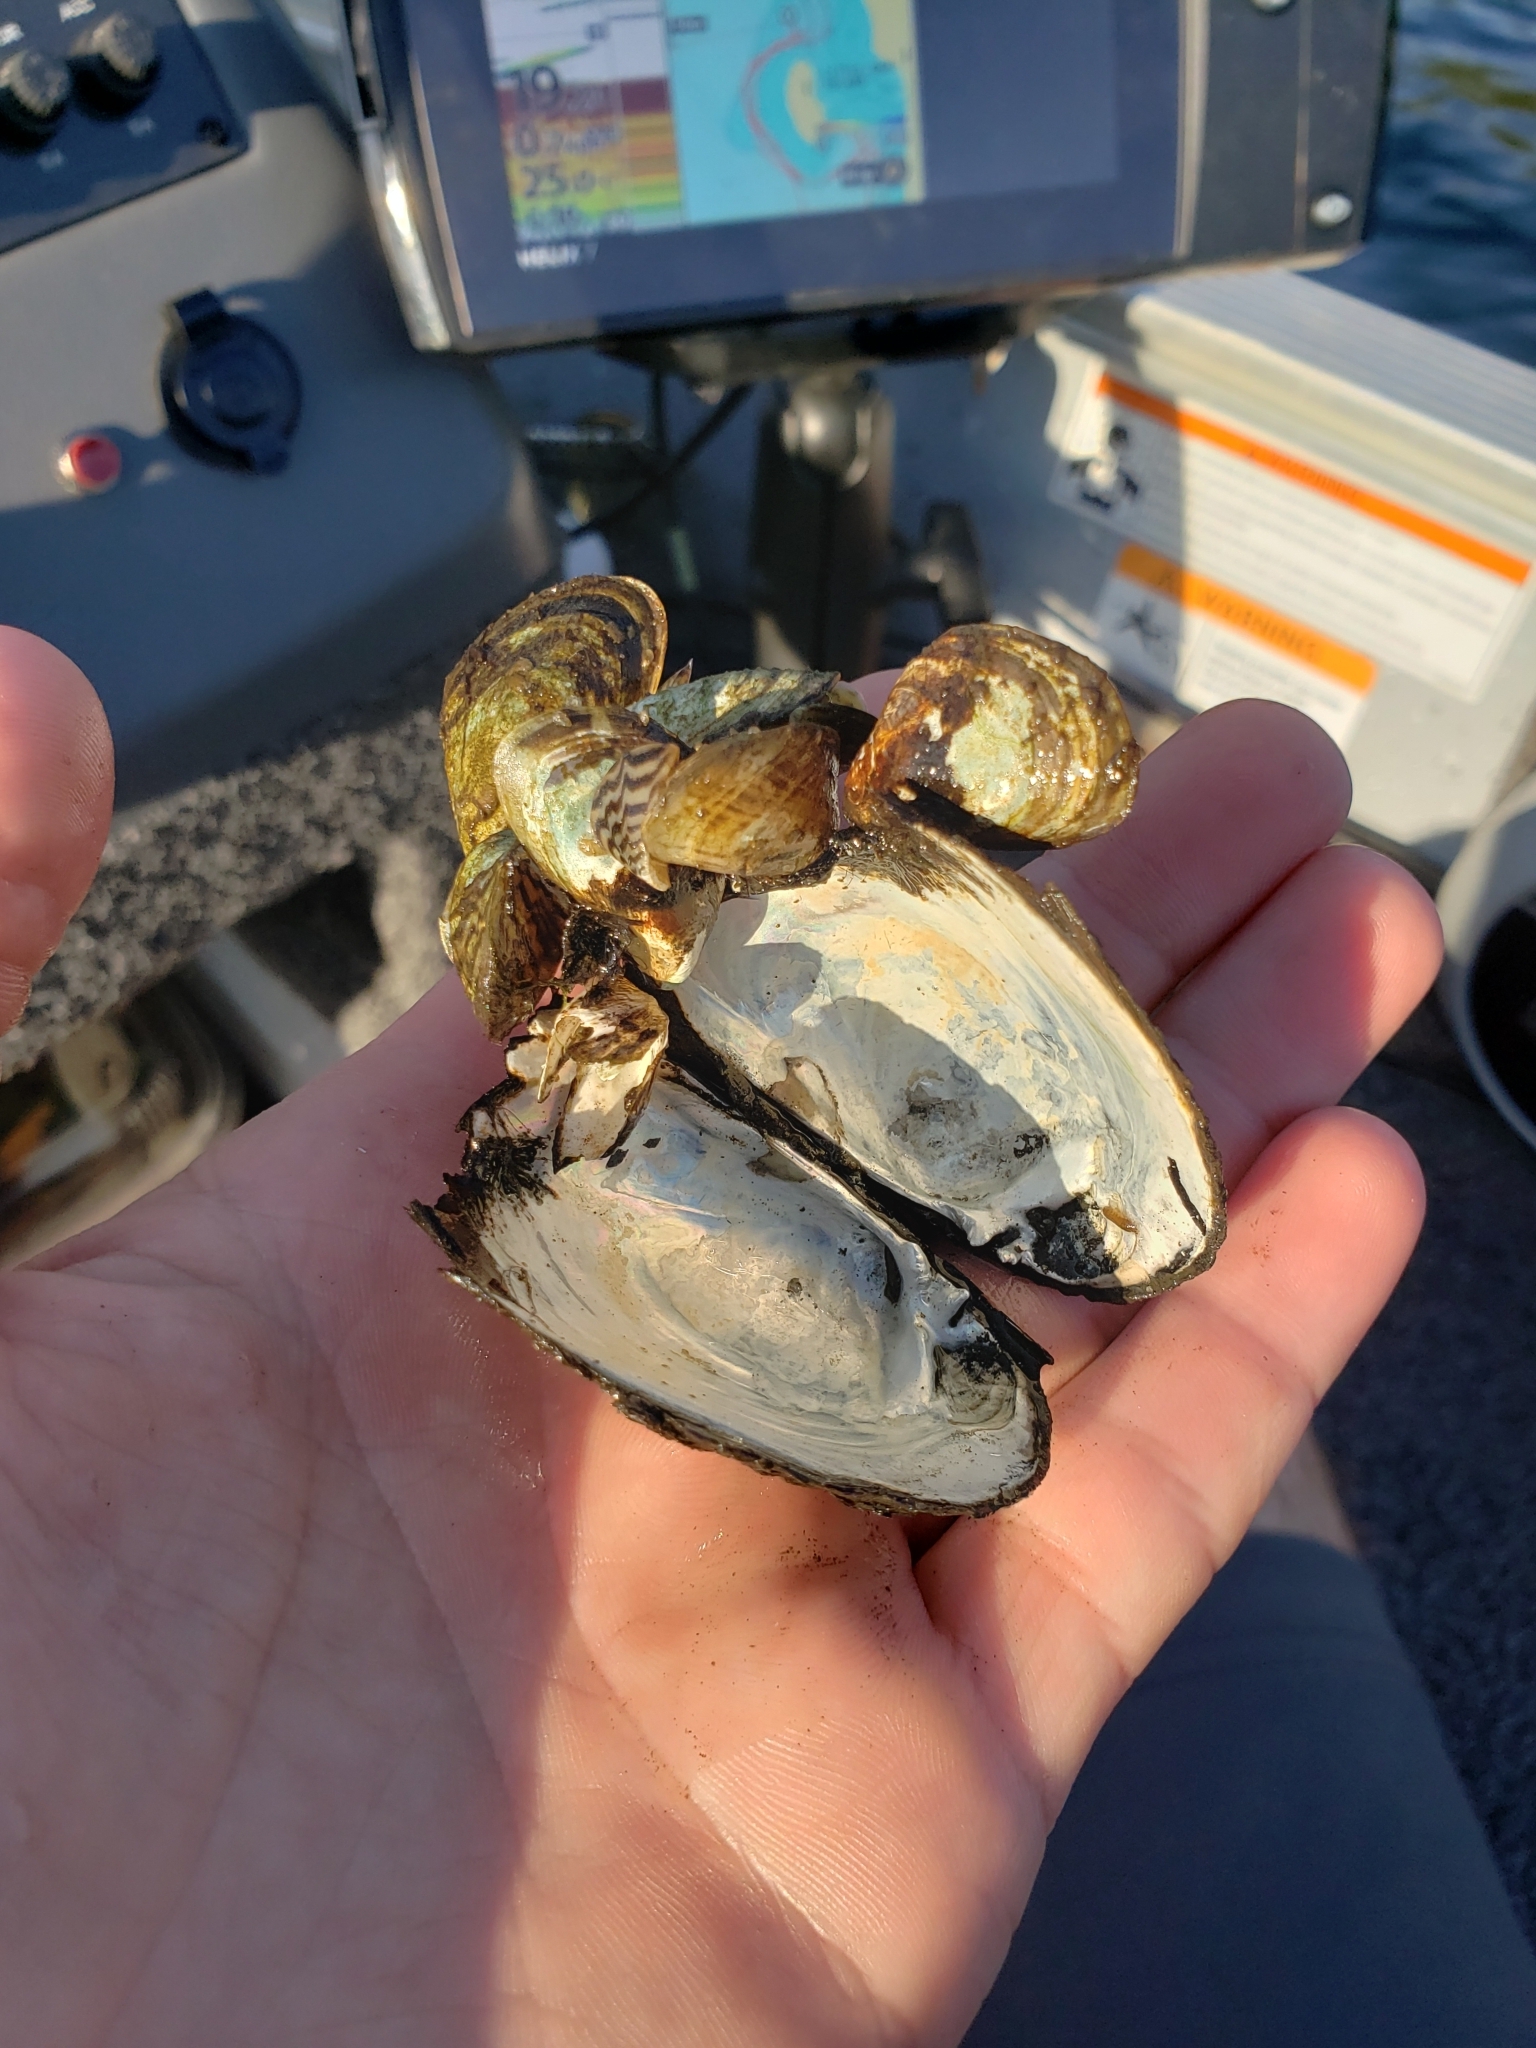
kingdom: Animalia
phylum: Mollusca
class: Bivalvia
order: Unionida
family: Unionidae
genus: Lampsilis
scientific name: Lampsilis siliquoidea
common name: Fatmucket
